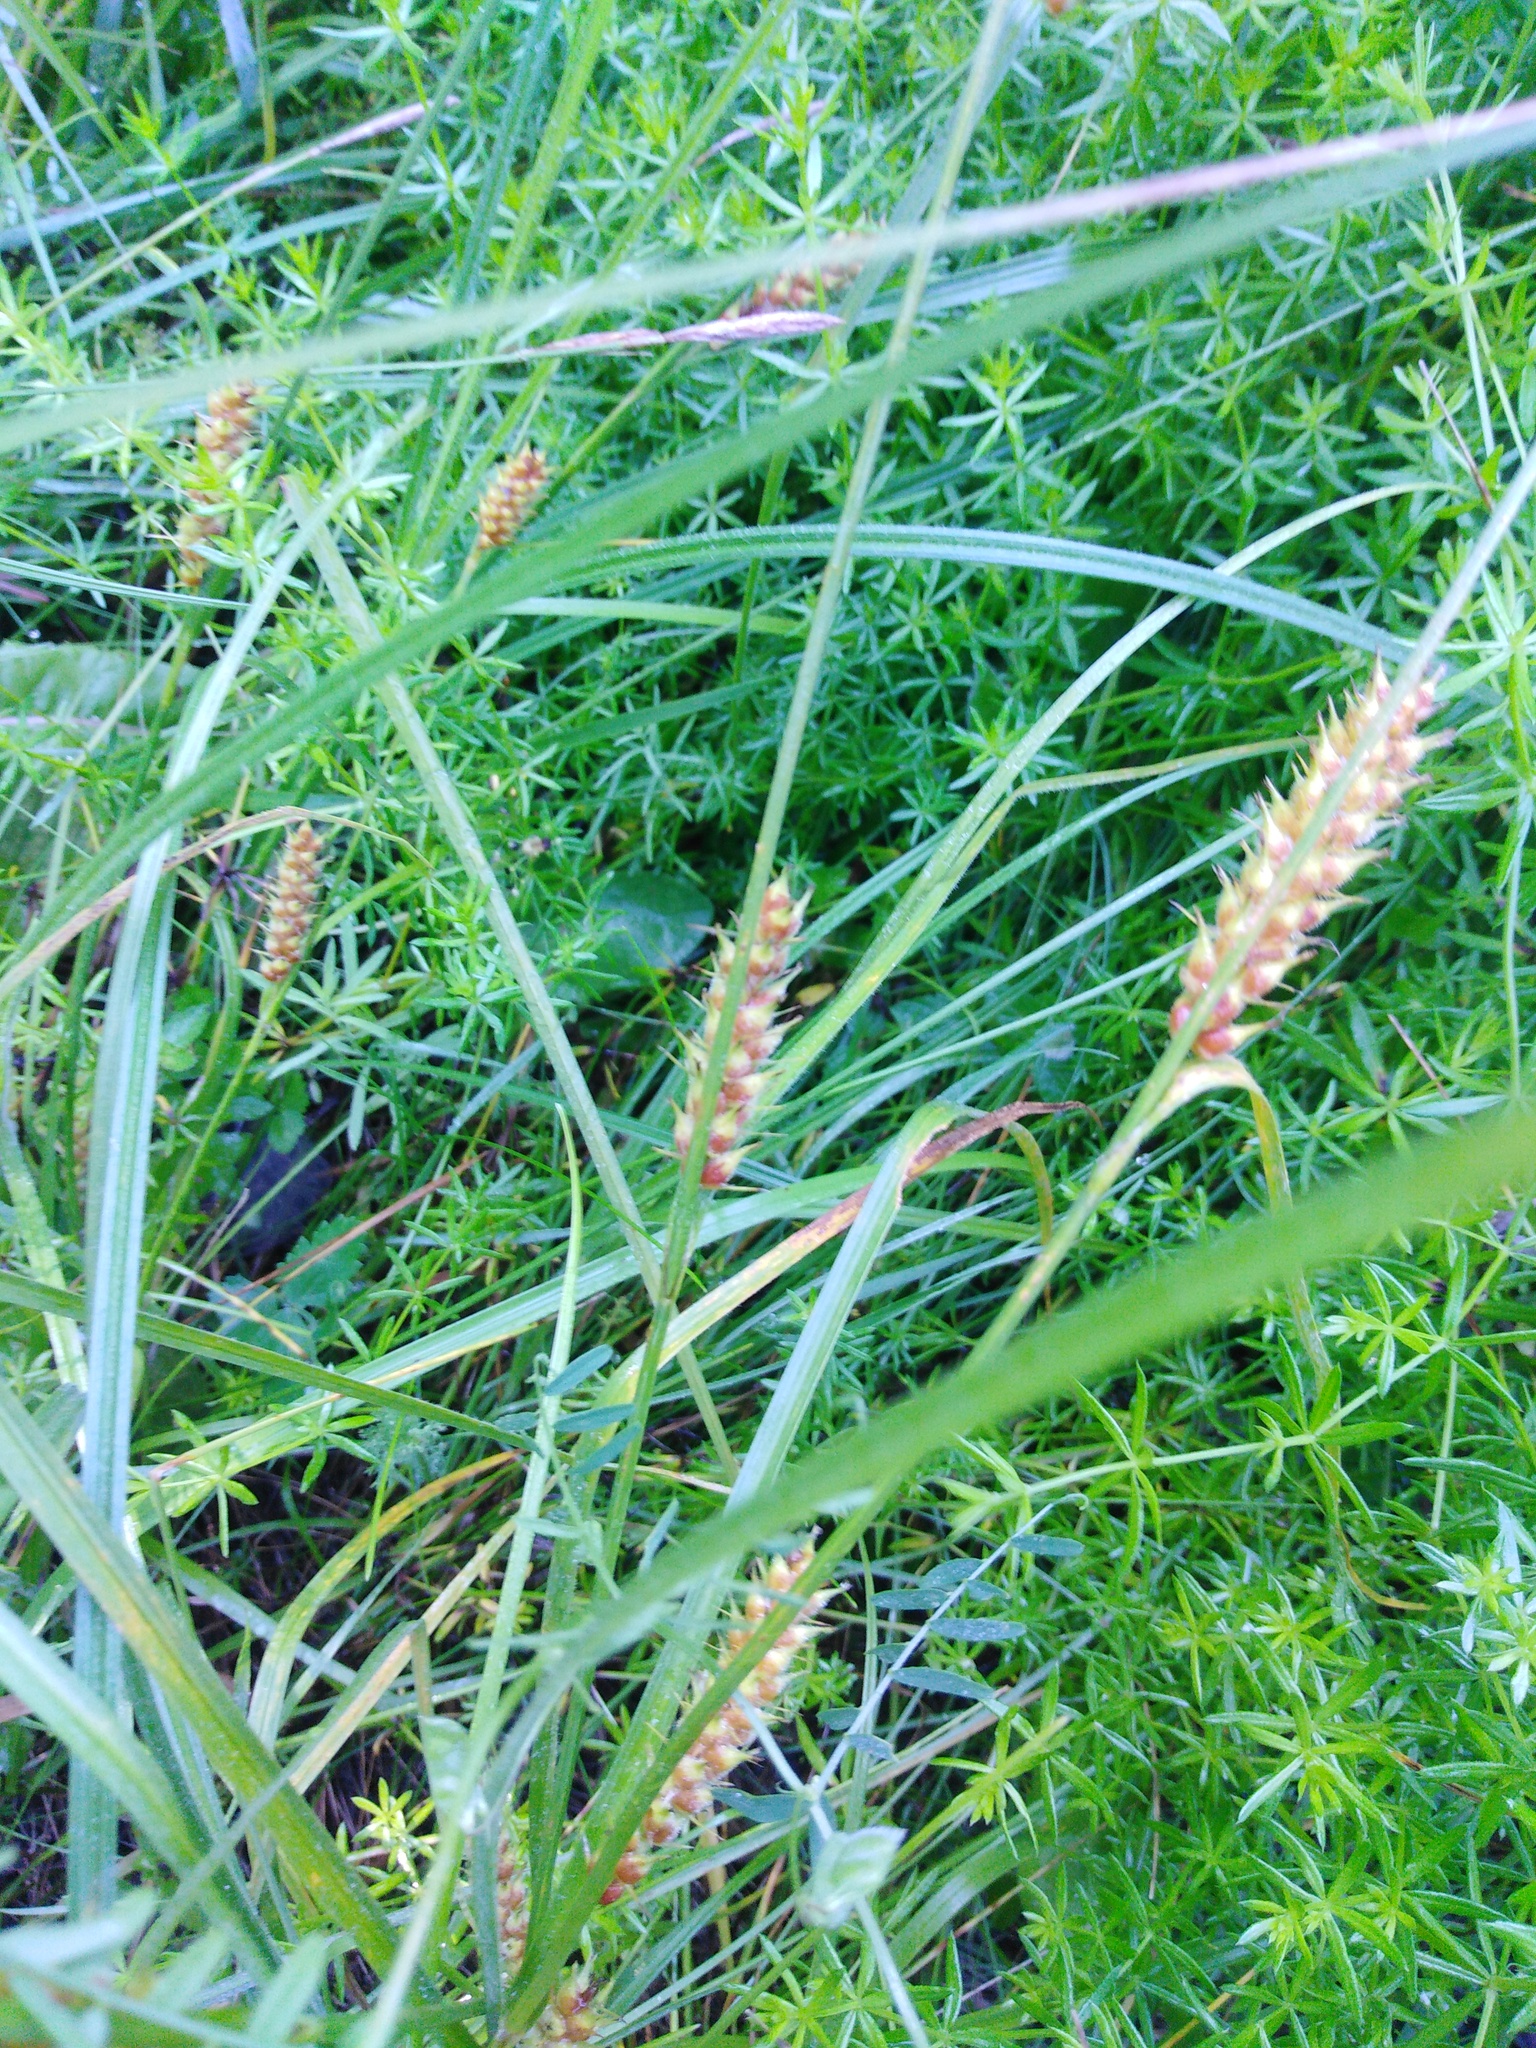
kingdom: Plantae
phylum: Tracheophyta
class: Liliopsida
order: Poales
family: Cyperaceae
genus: Carex
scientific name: Carex hirta
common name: Hairy sedge
